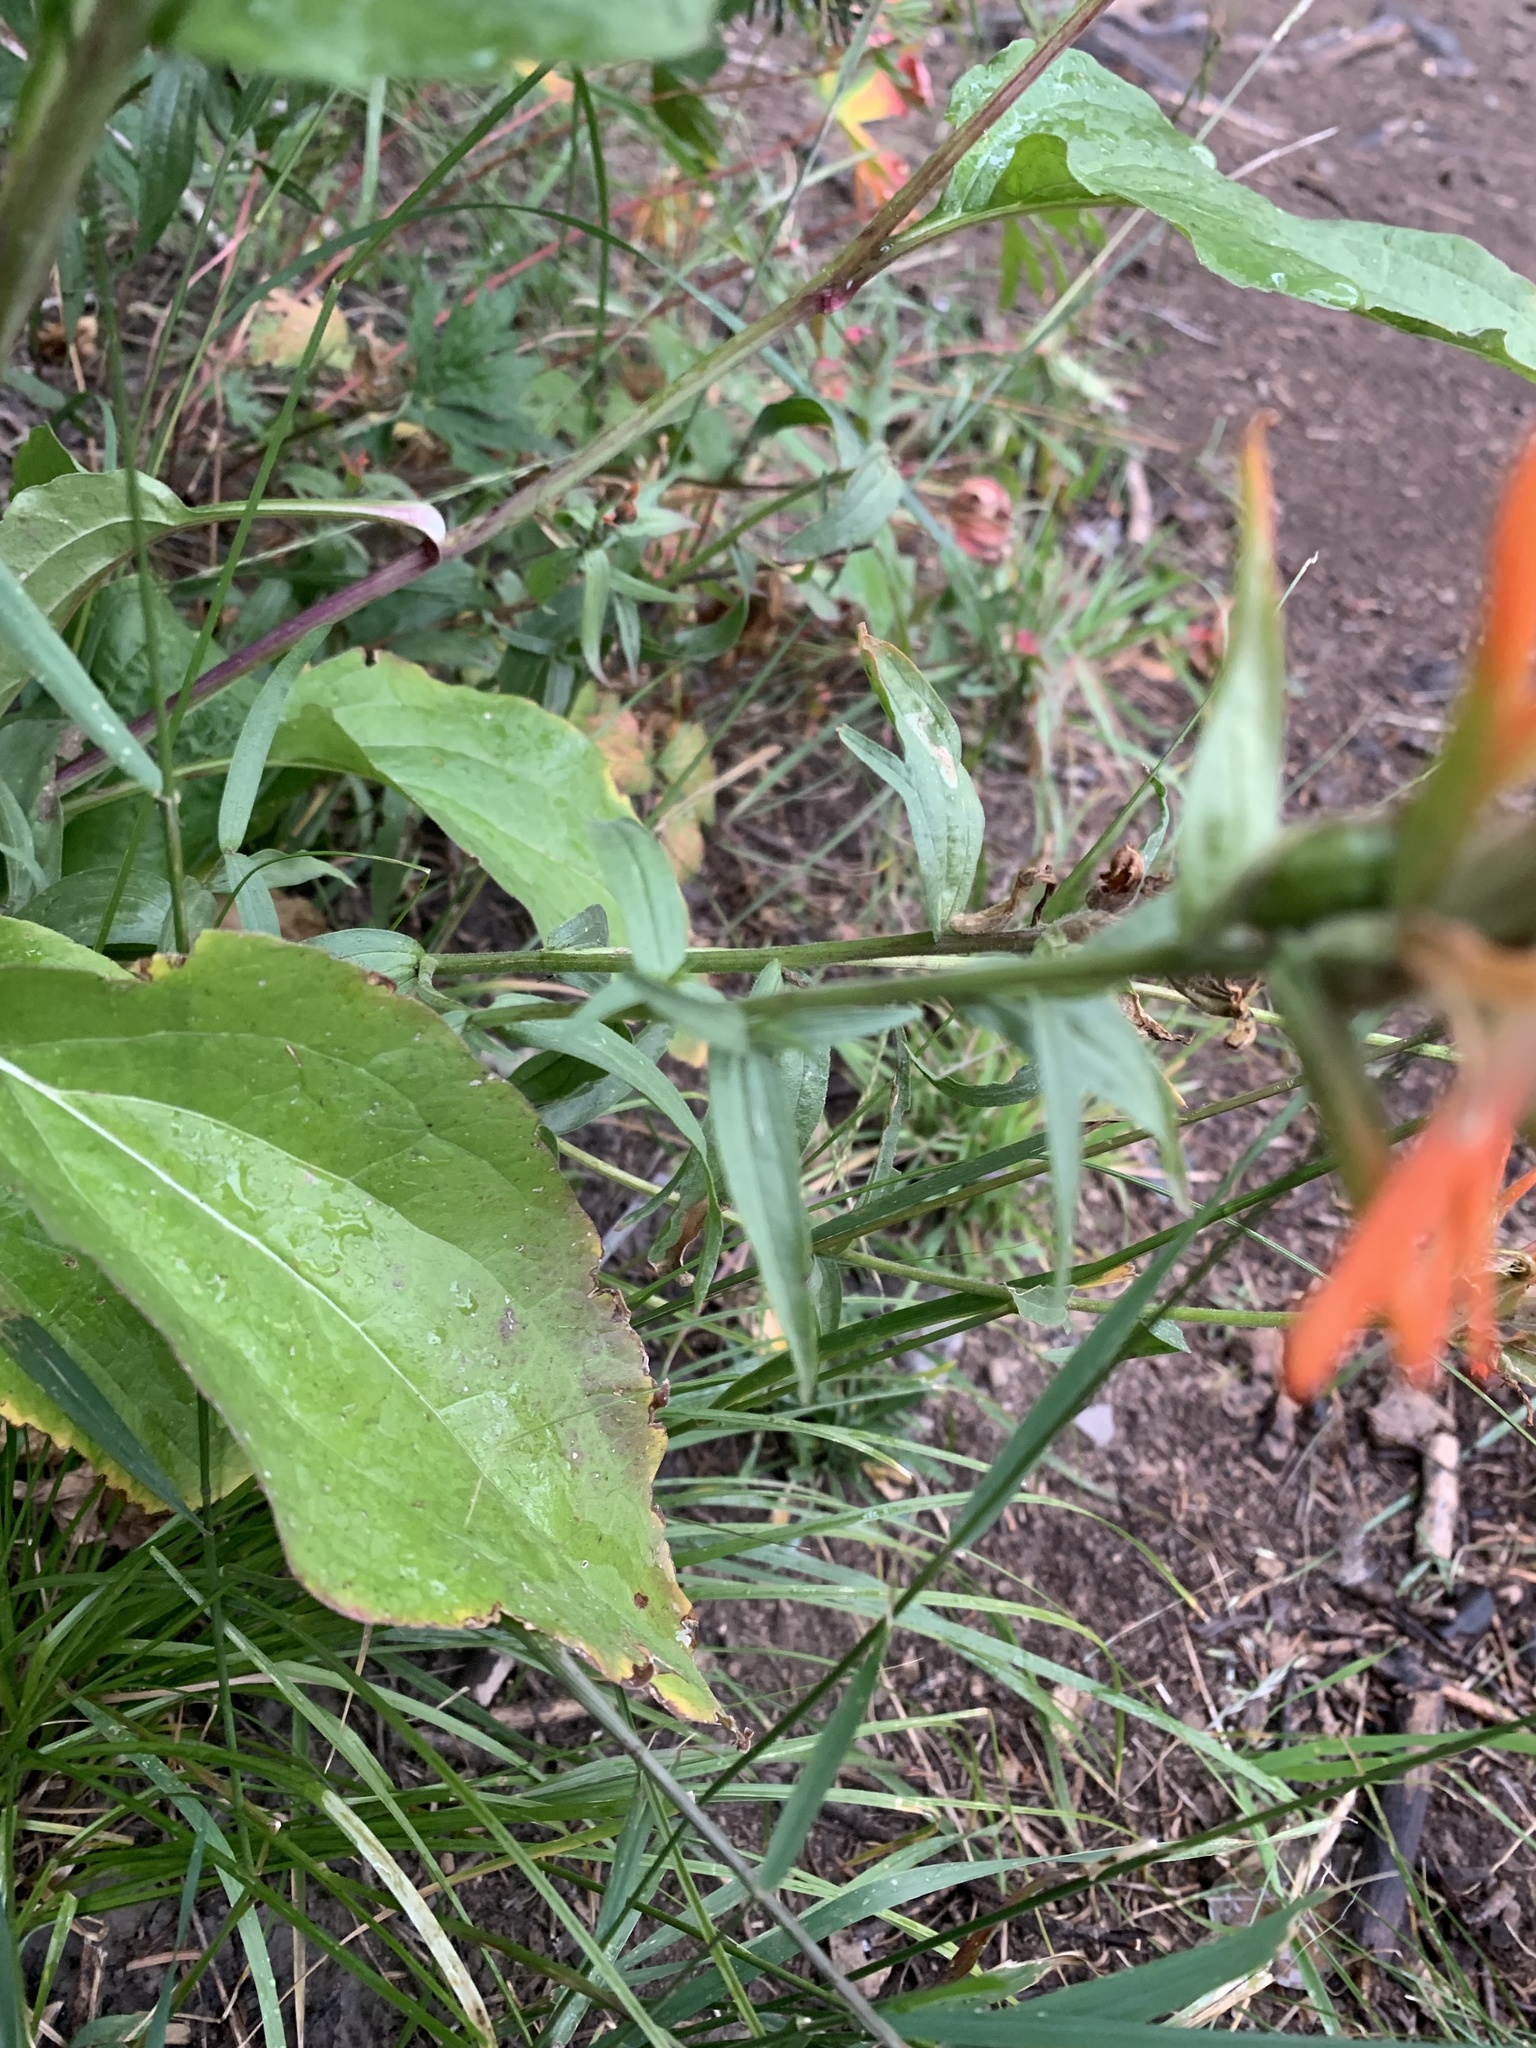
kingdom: Plantae
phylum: Tracheophyta
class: Magnoliopsida
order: Lamiales
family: Orobanchaceae
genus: Castilleja
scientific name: Castilleja miniata
